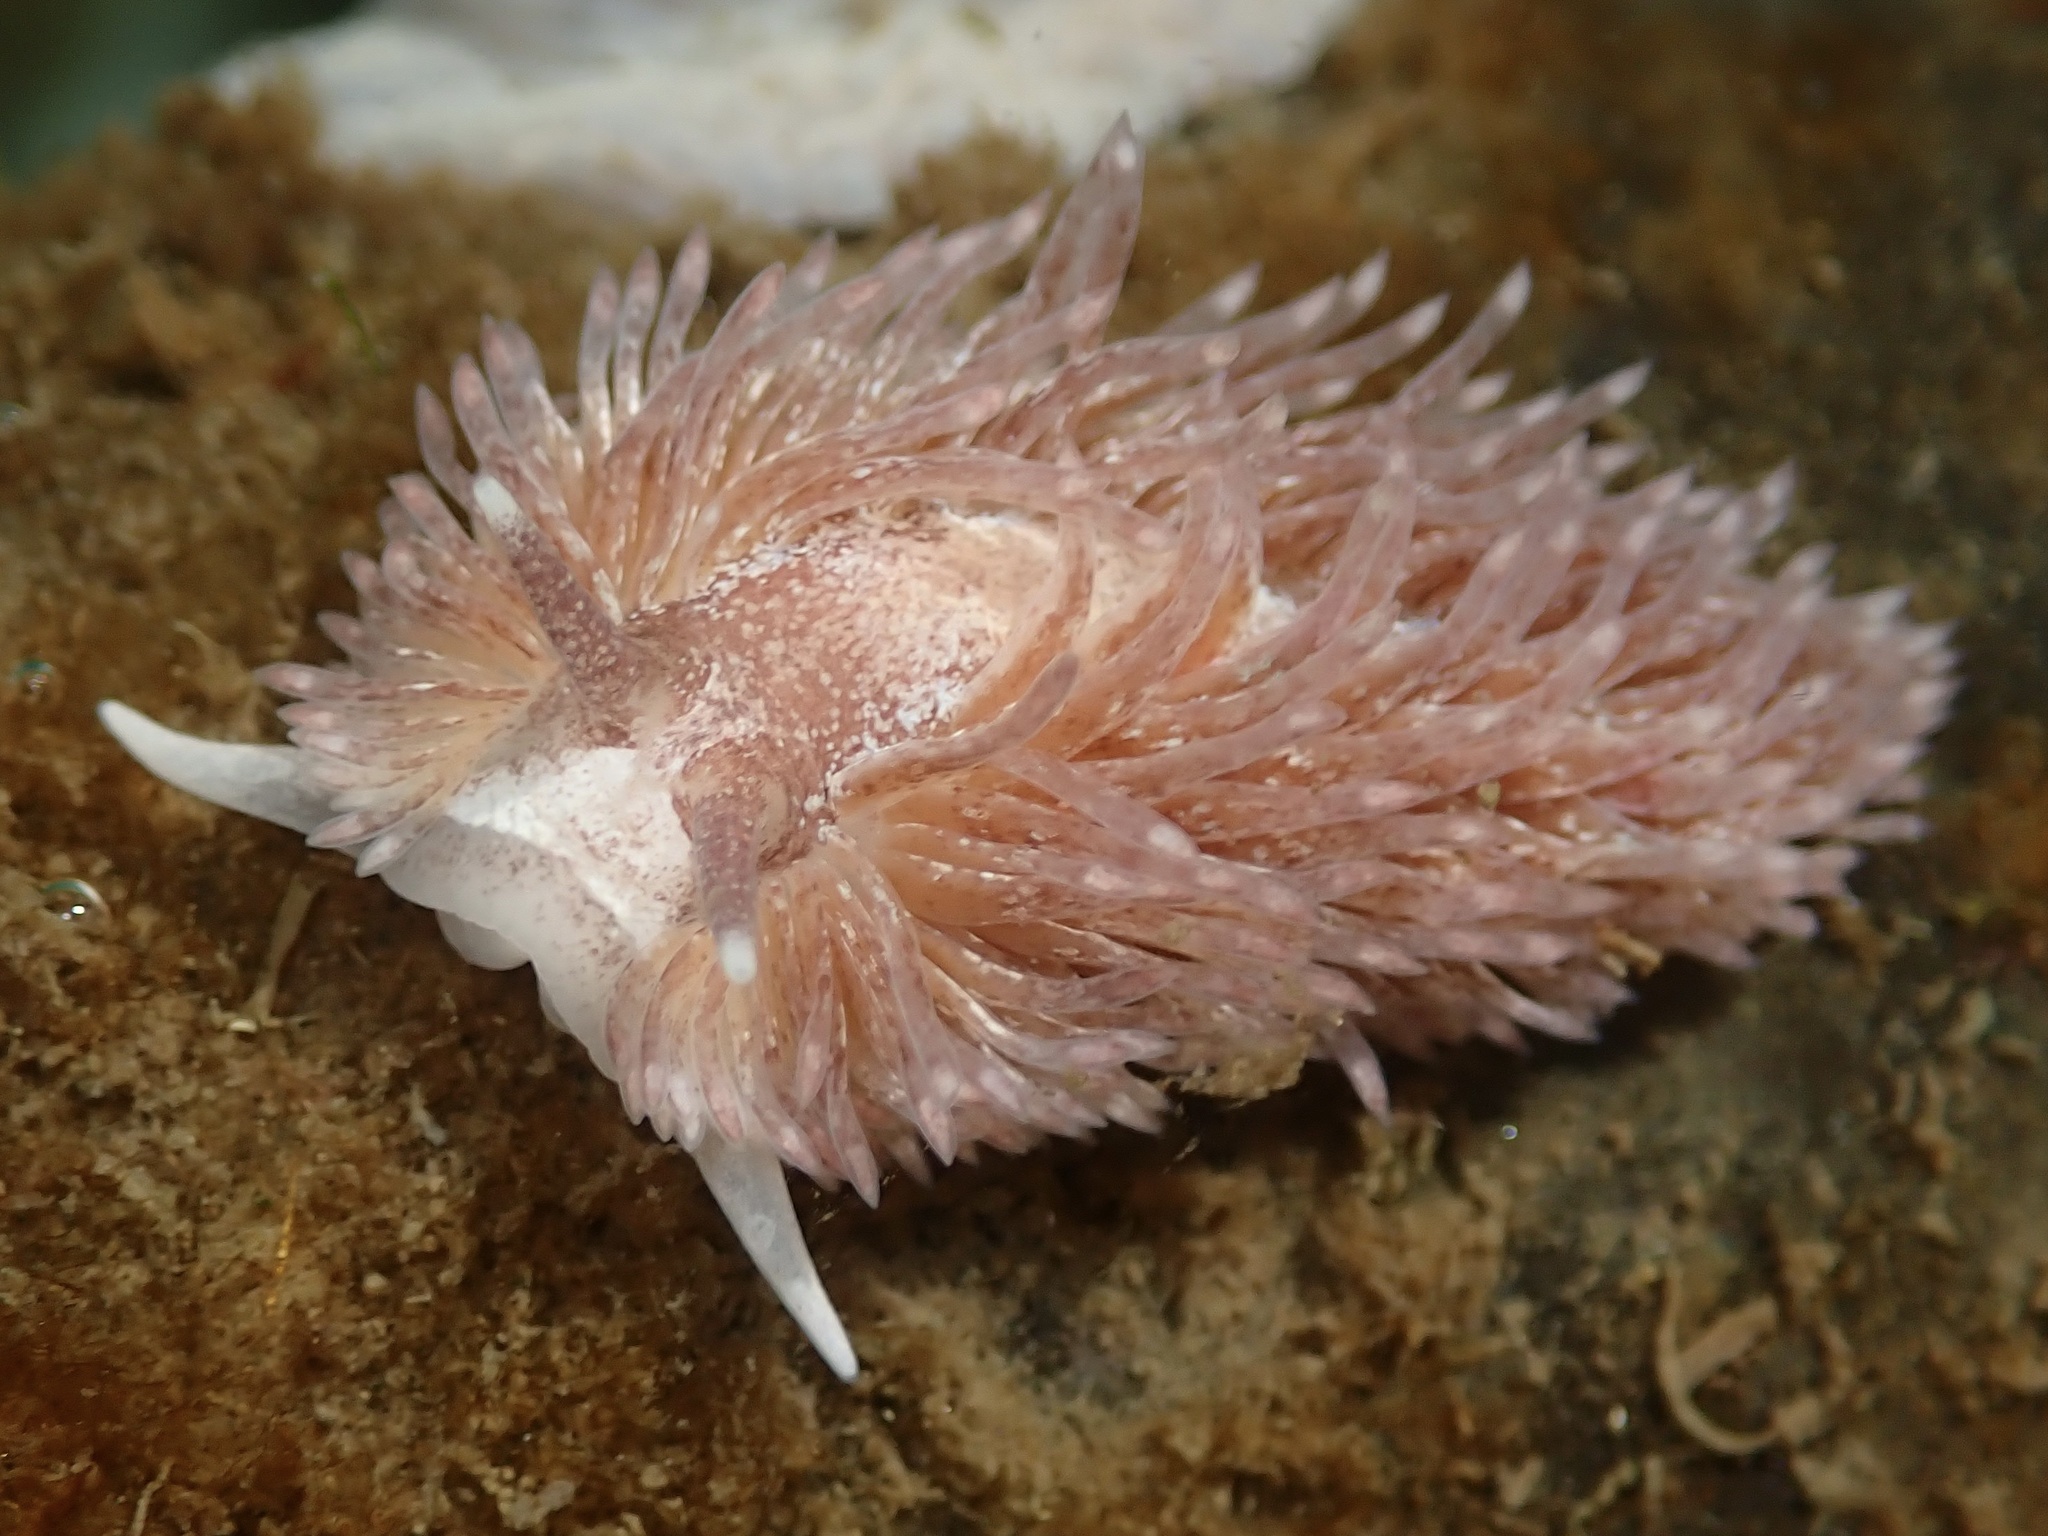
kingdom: Animalia
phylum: Mollusca
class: Gastropoda
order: Nudibranchia
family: Aeolidiidae
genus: Aeolidia
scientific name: Aeolidia papillosa
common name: Common grey sea slug
